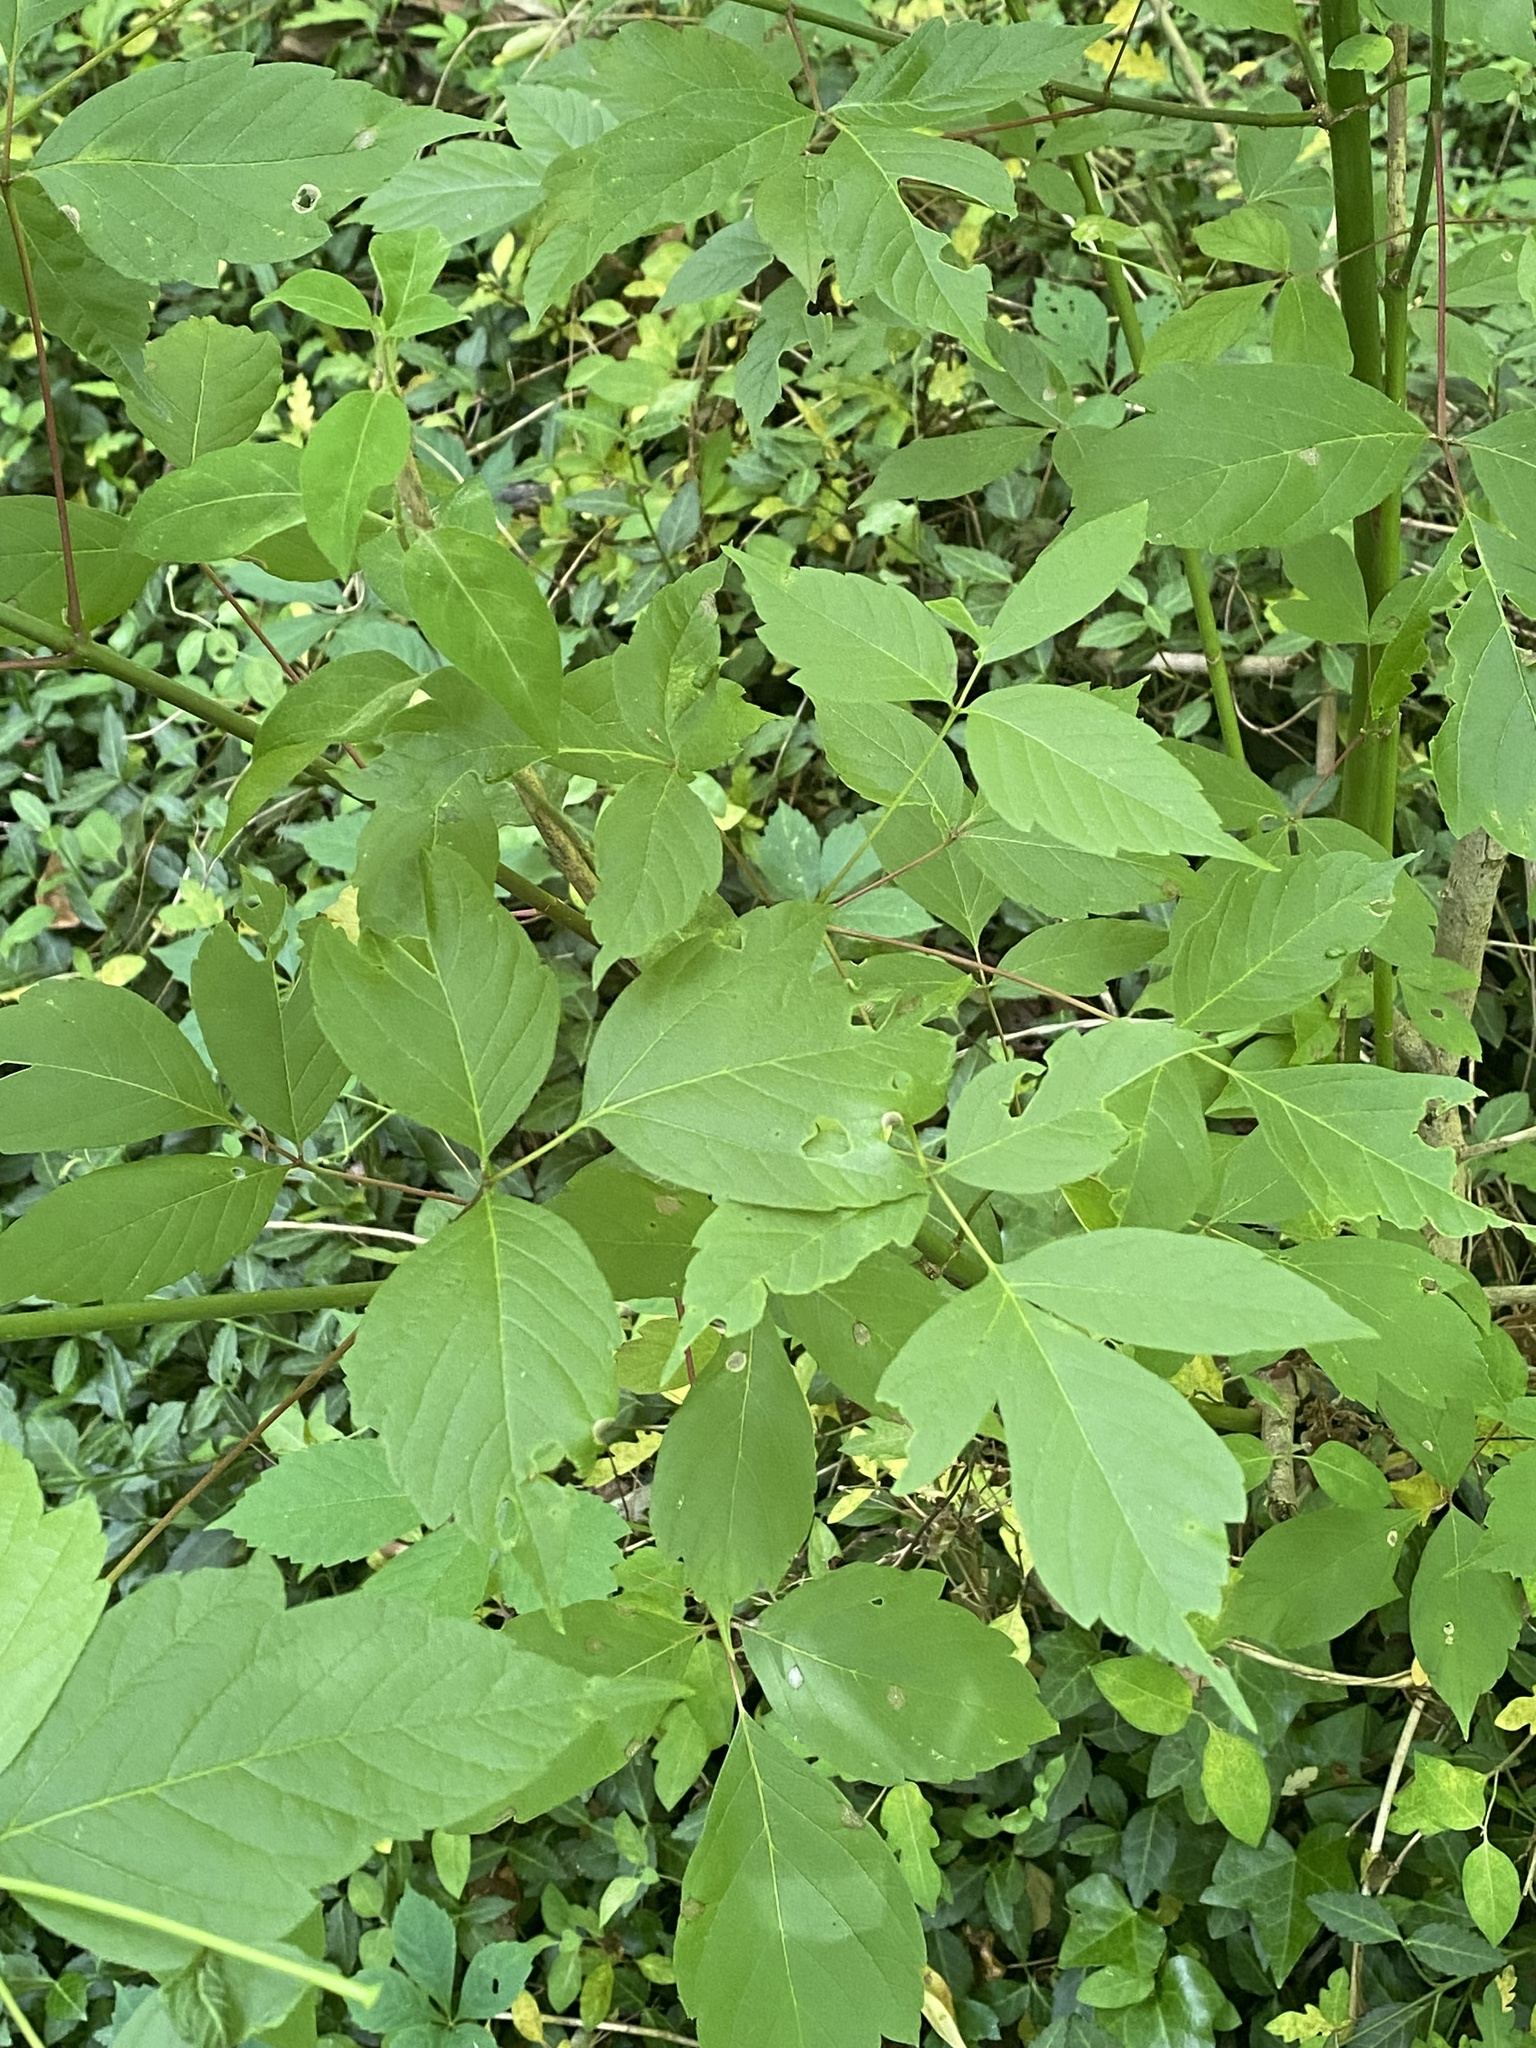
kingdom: Plantae
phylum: Tracheophyta
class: Magnoliopsida
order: Sapindales
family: Sapindaceae
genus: Acer
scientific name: Acer negundo
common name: Ashleaf maple
